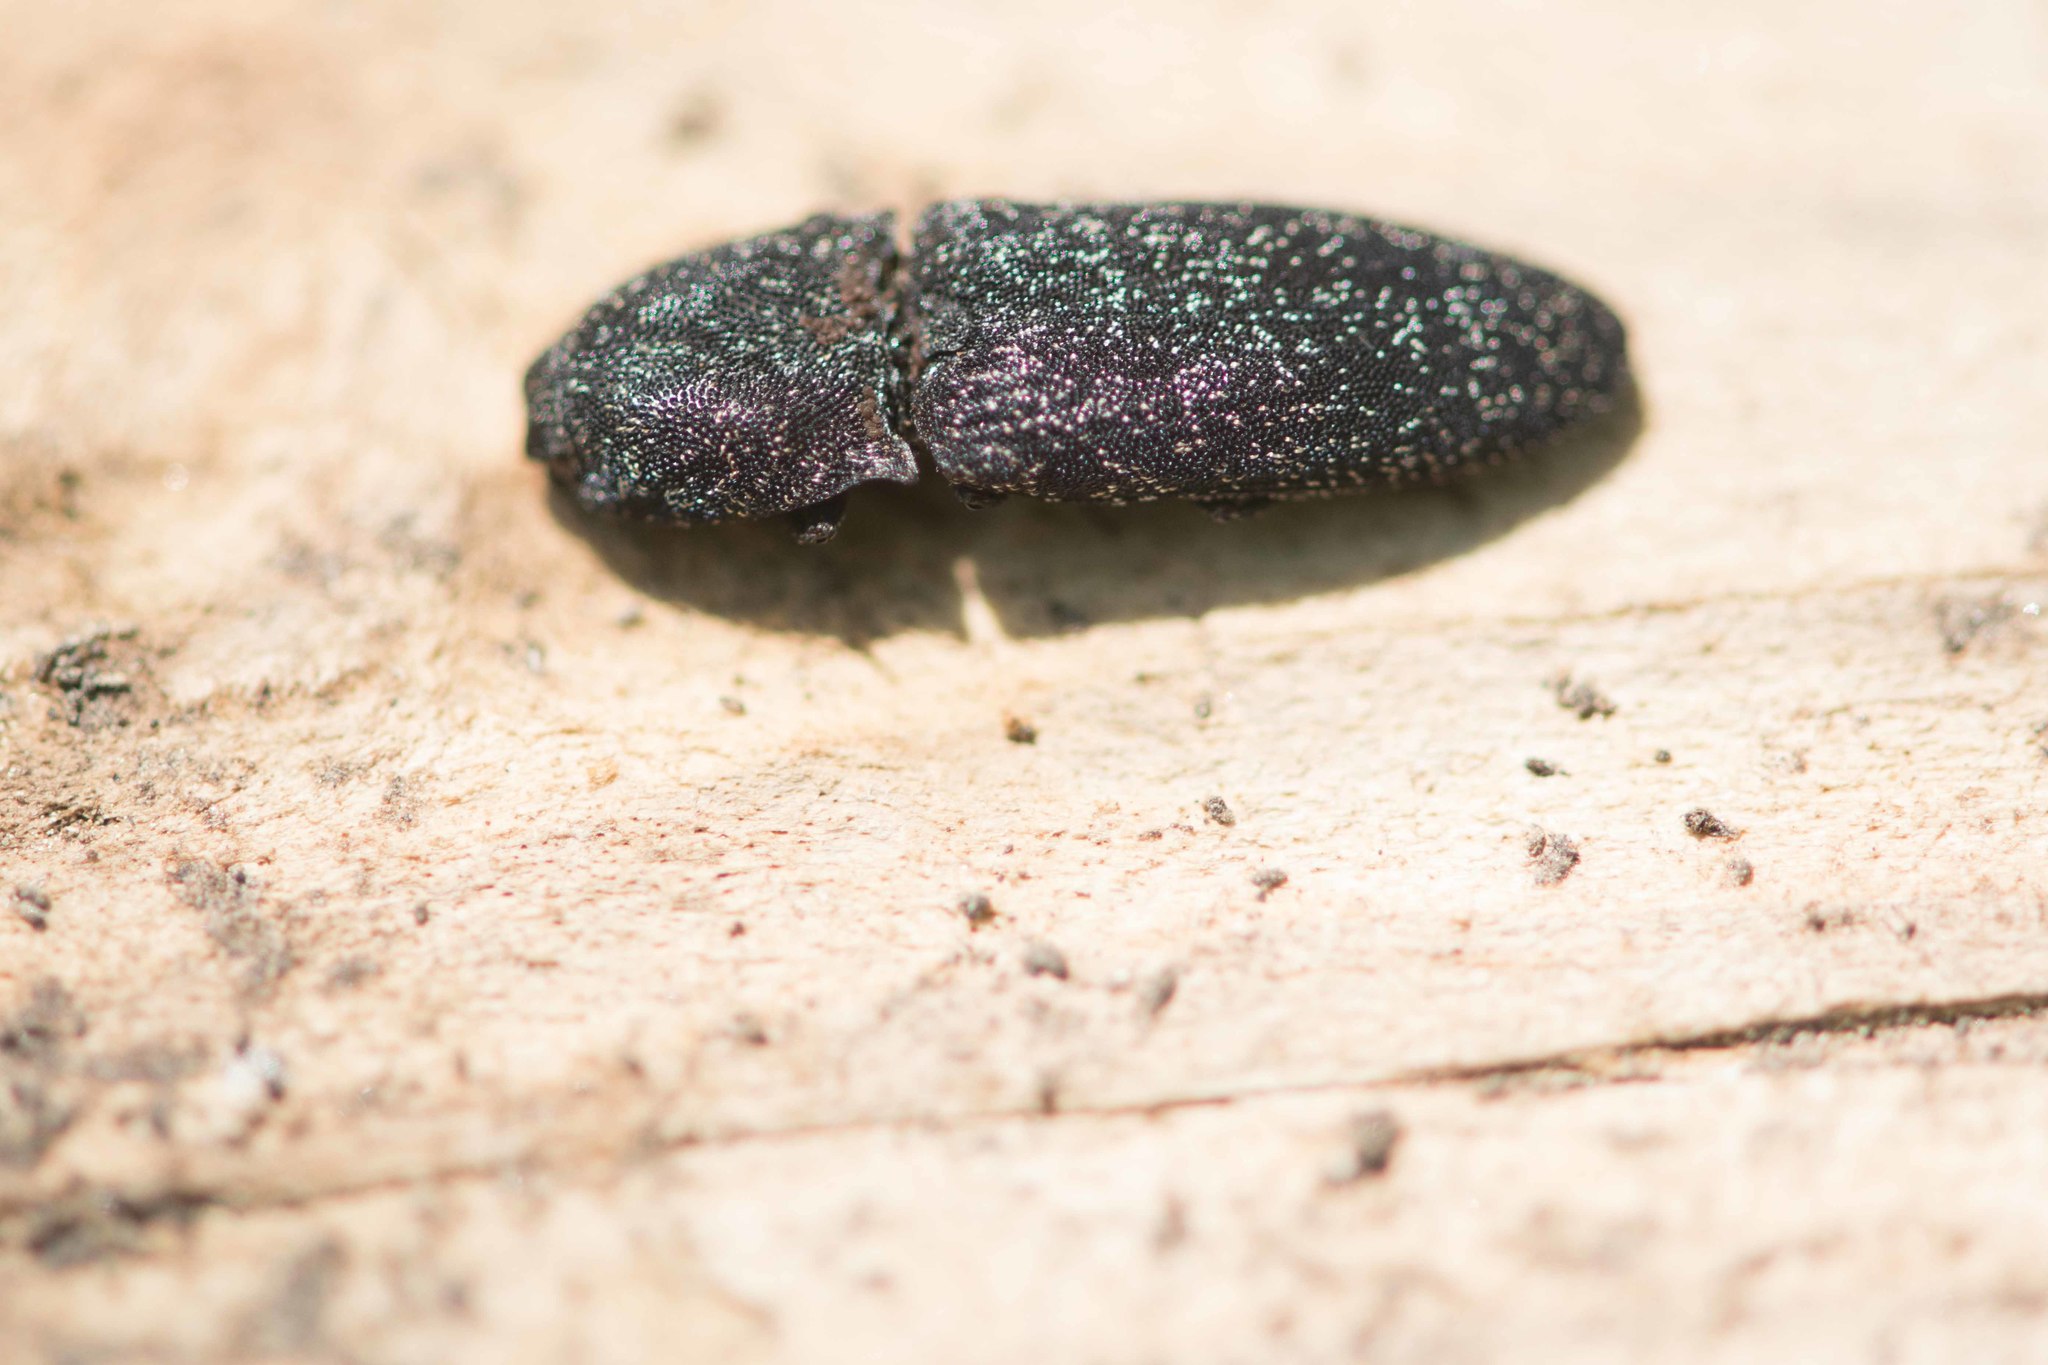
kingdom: Animalia
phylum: Arthropoda
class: Insecta
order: Coleoptera
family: Elateridae
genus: Lacon
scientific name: Lacon punctatus
